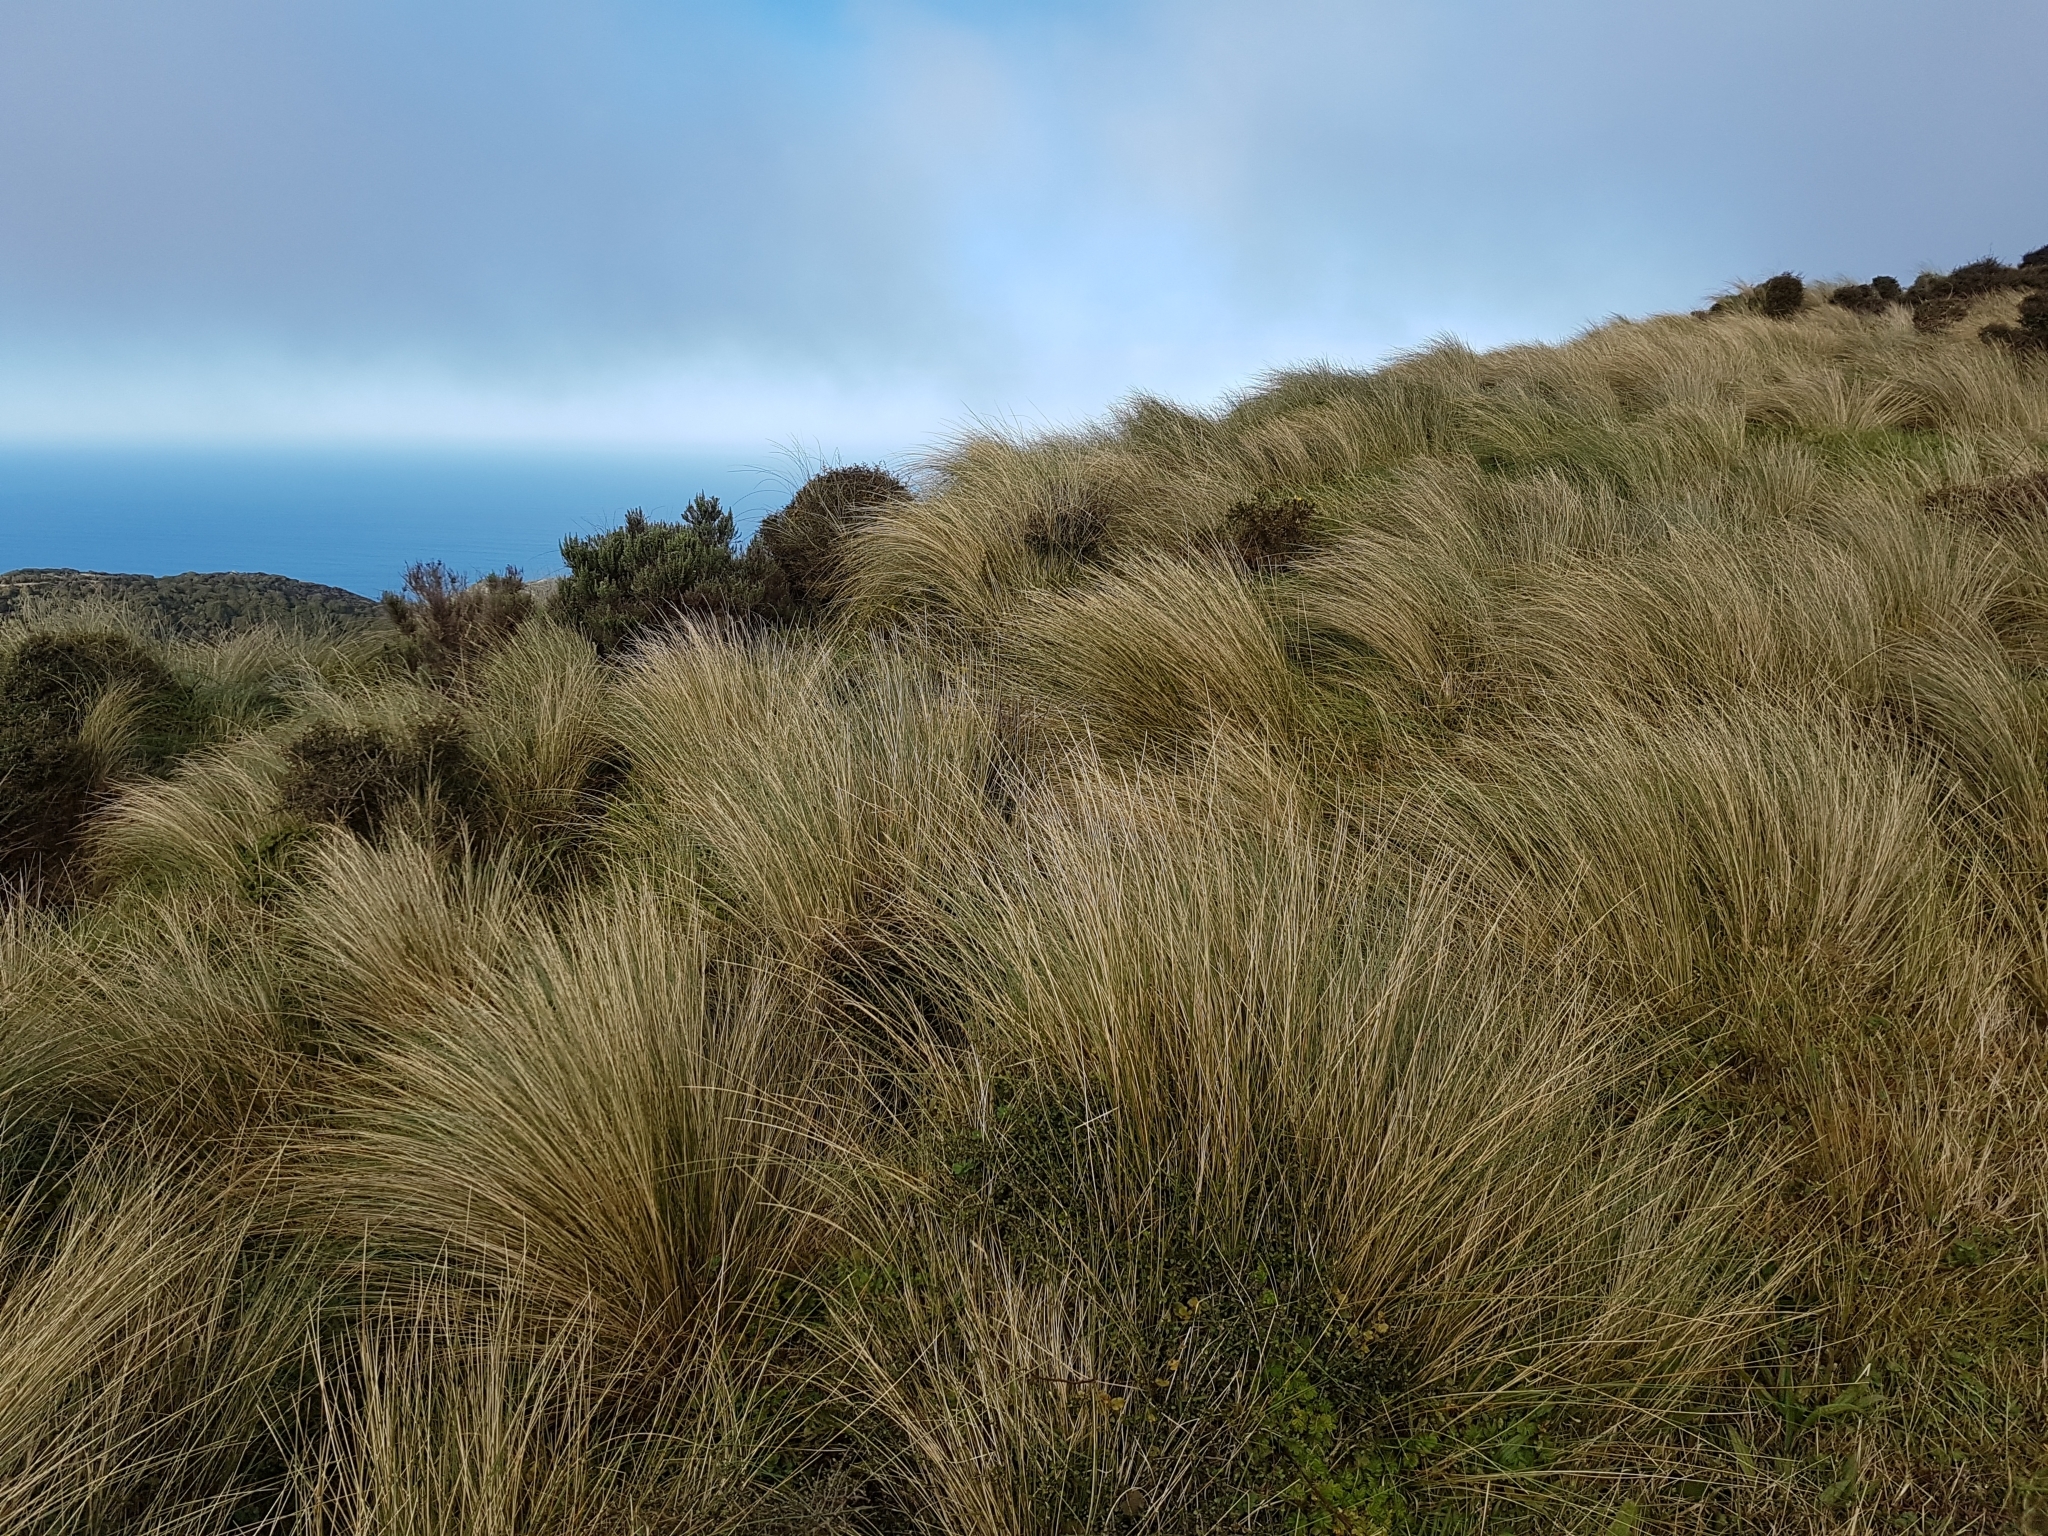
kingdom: Plantae
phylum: Tracheophyta
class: Liliopsida
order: Poales
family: Poaceae
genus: Poa
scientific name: Poa cita
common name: Silver tussock
